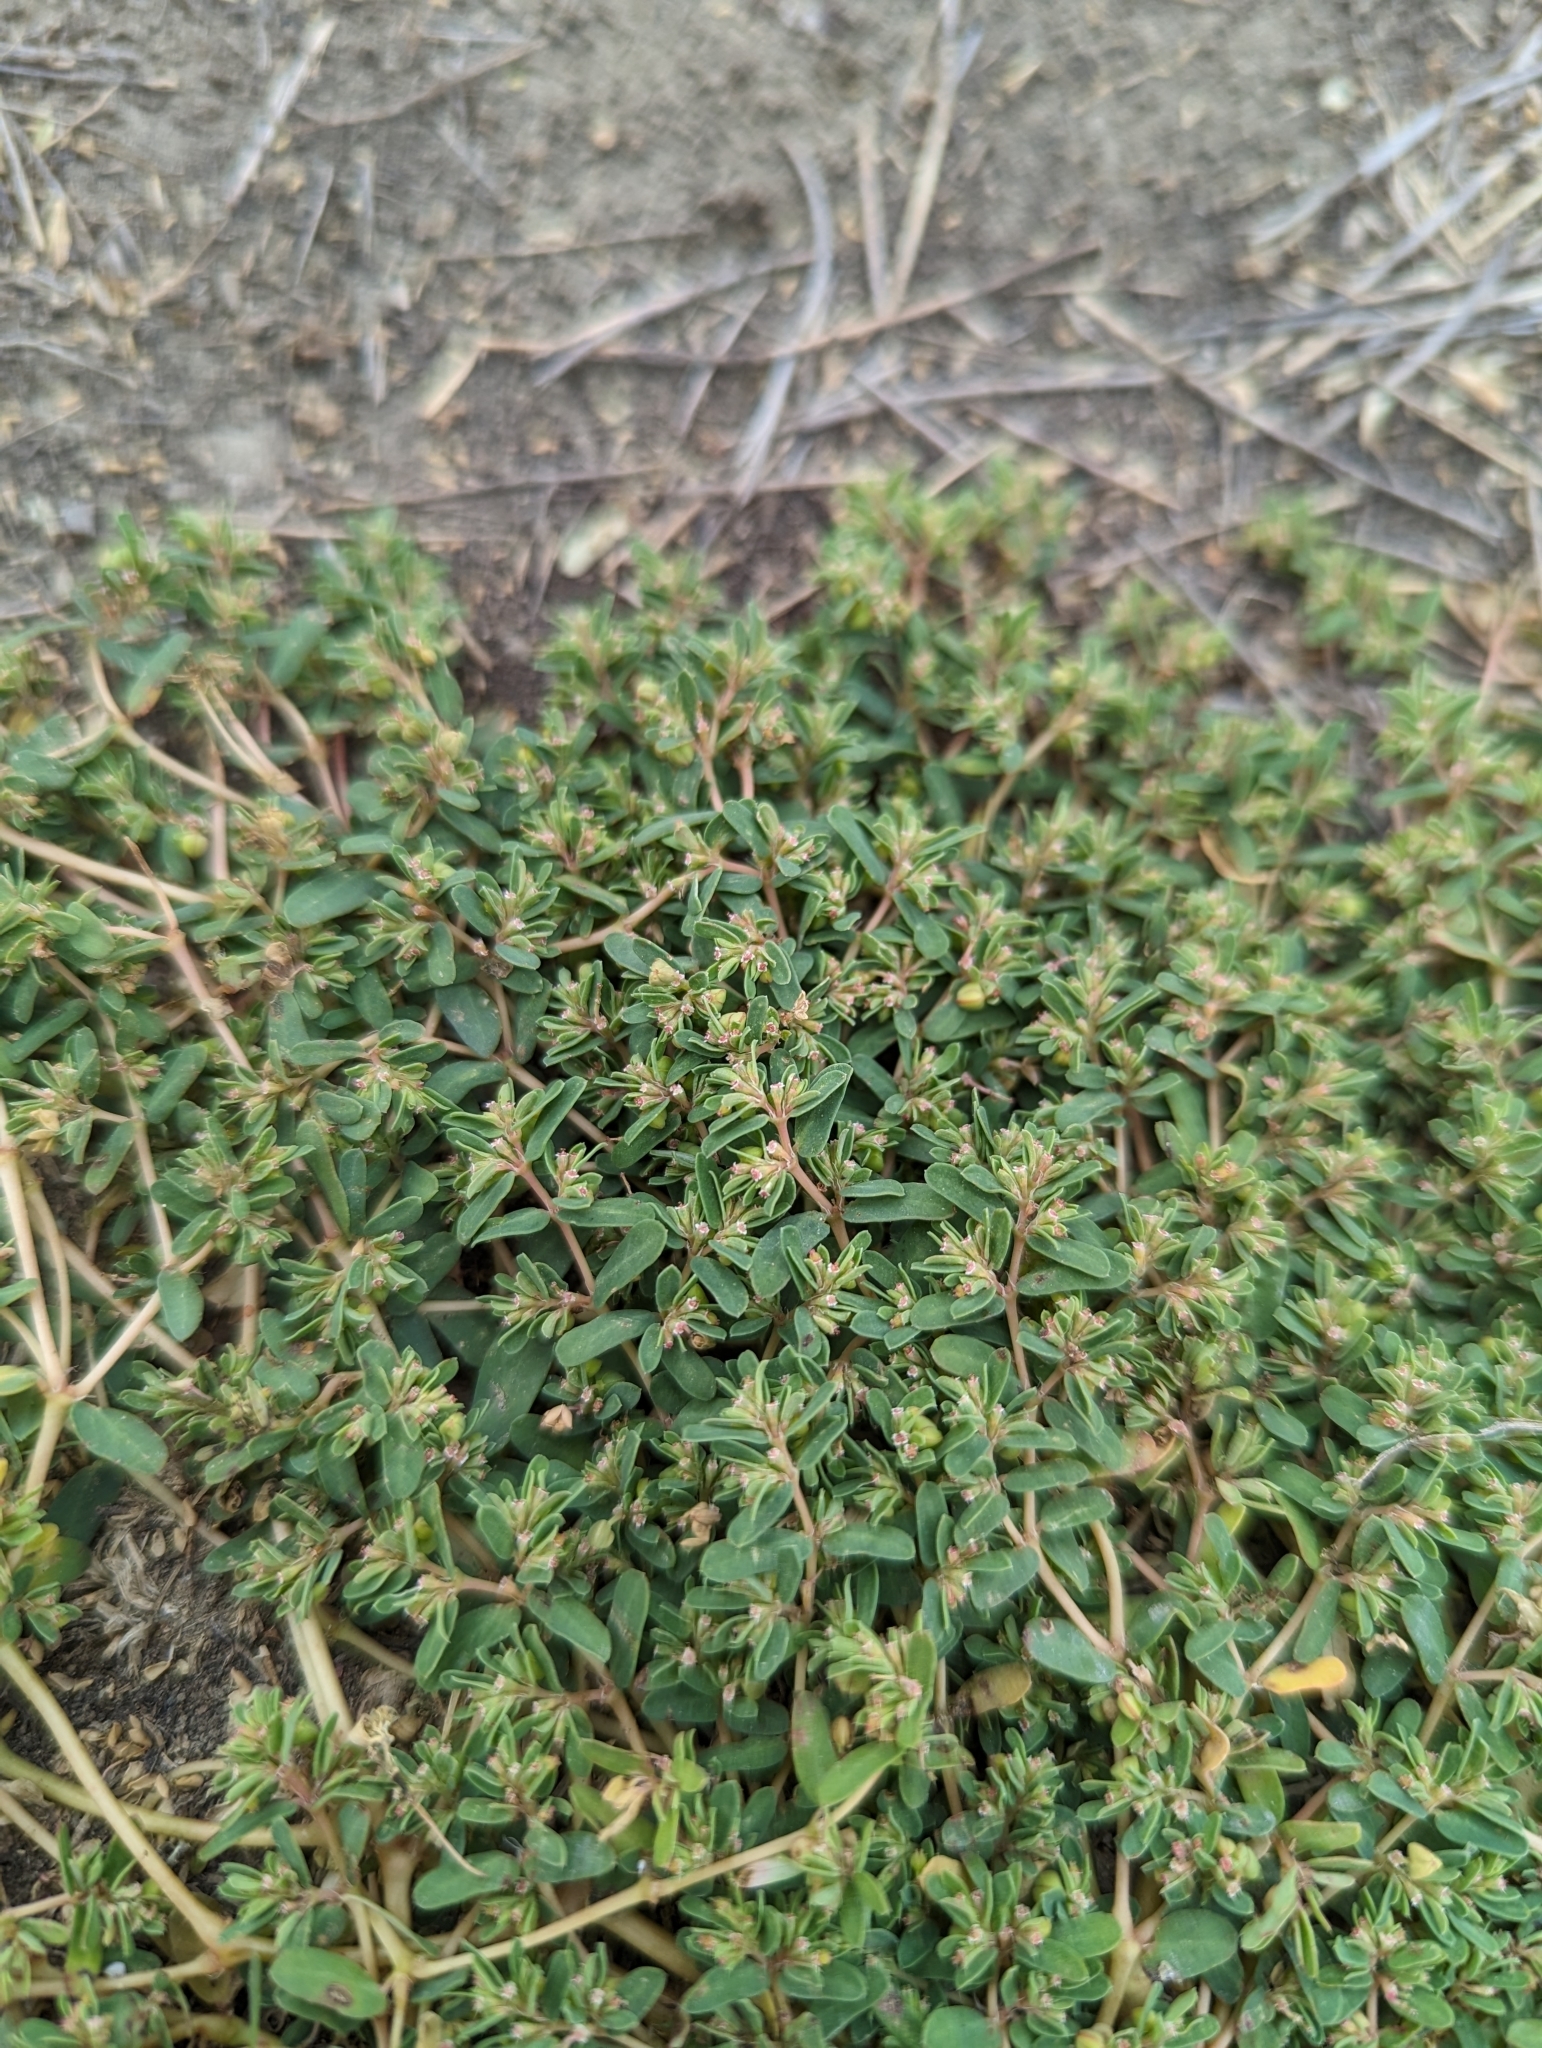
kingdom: Plantae
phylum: Tracheophyta
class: Magnoliopsida
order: Malpighiales
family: Euphorbiaceae
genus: Euphorbia
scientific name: Euphorbia glyptosperma
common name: Corrugate-seeded spurge
